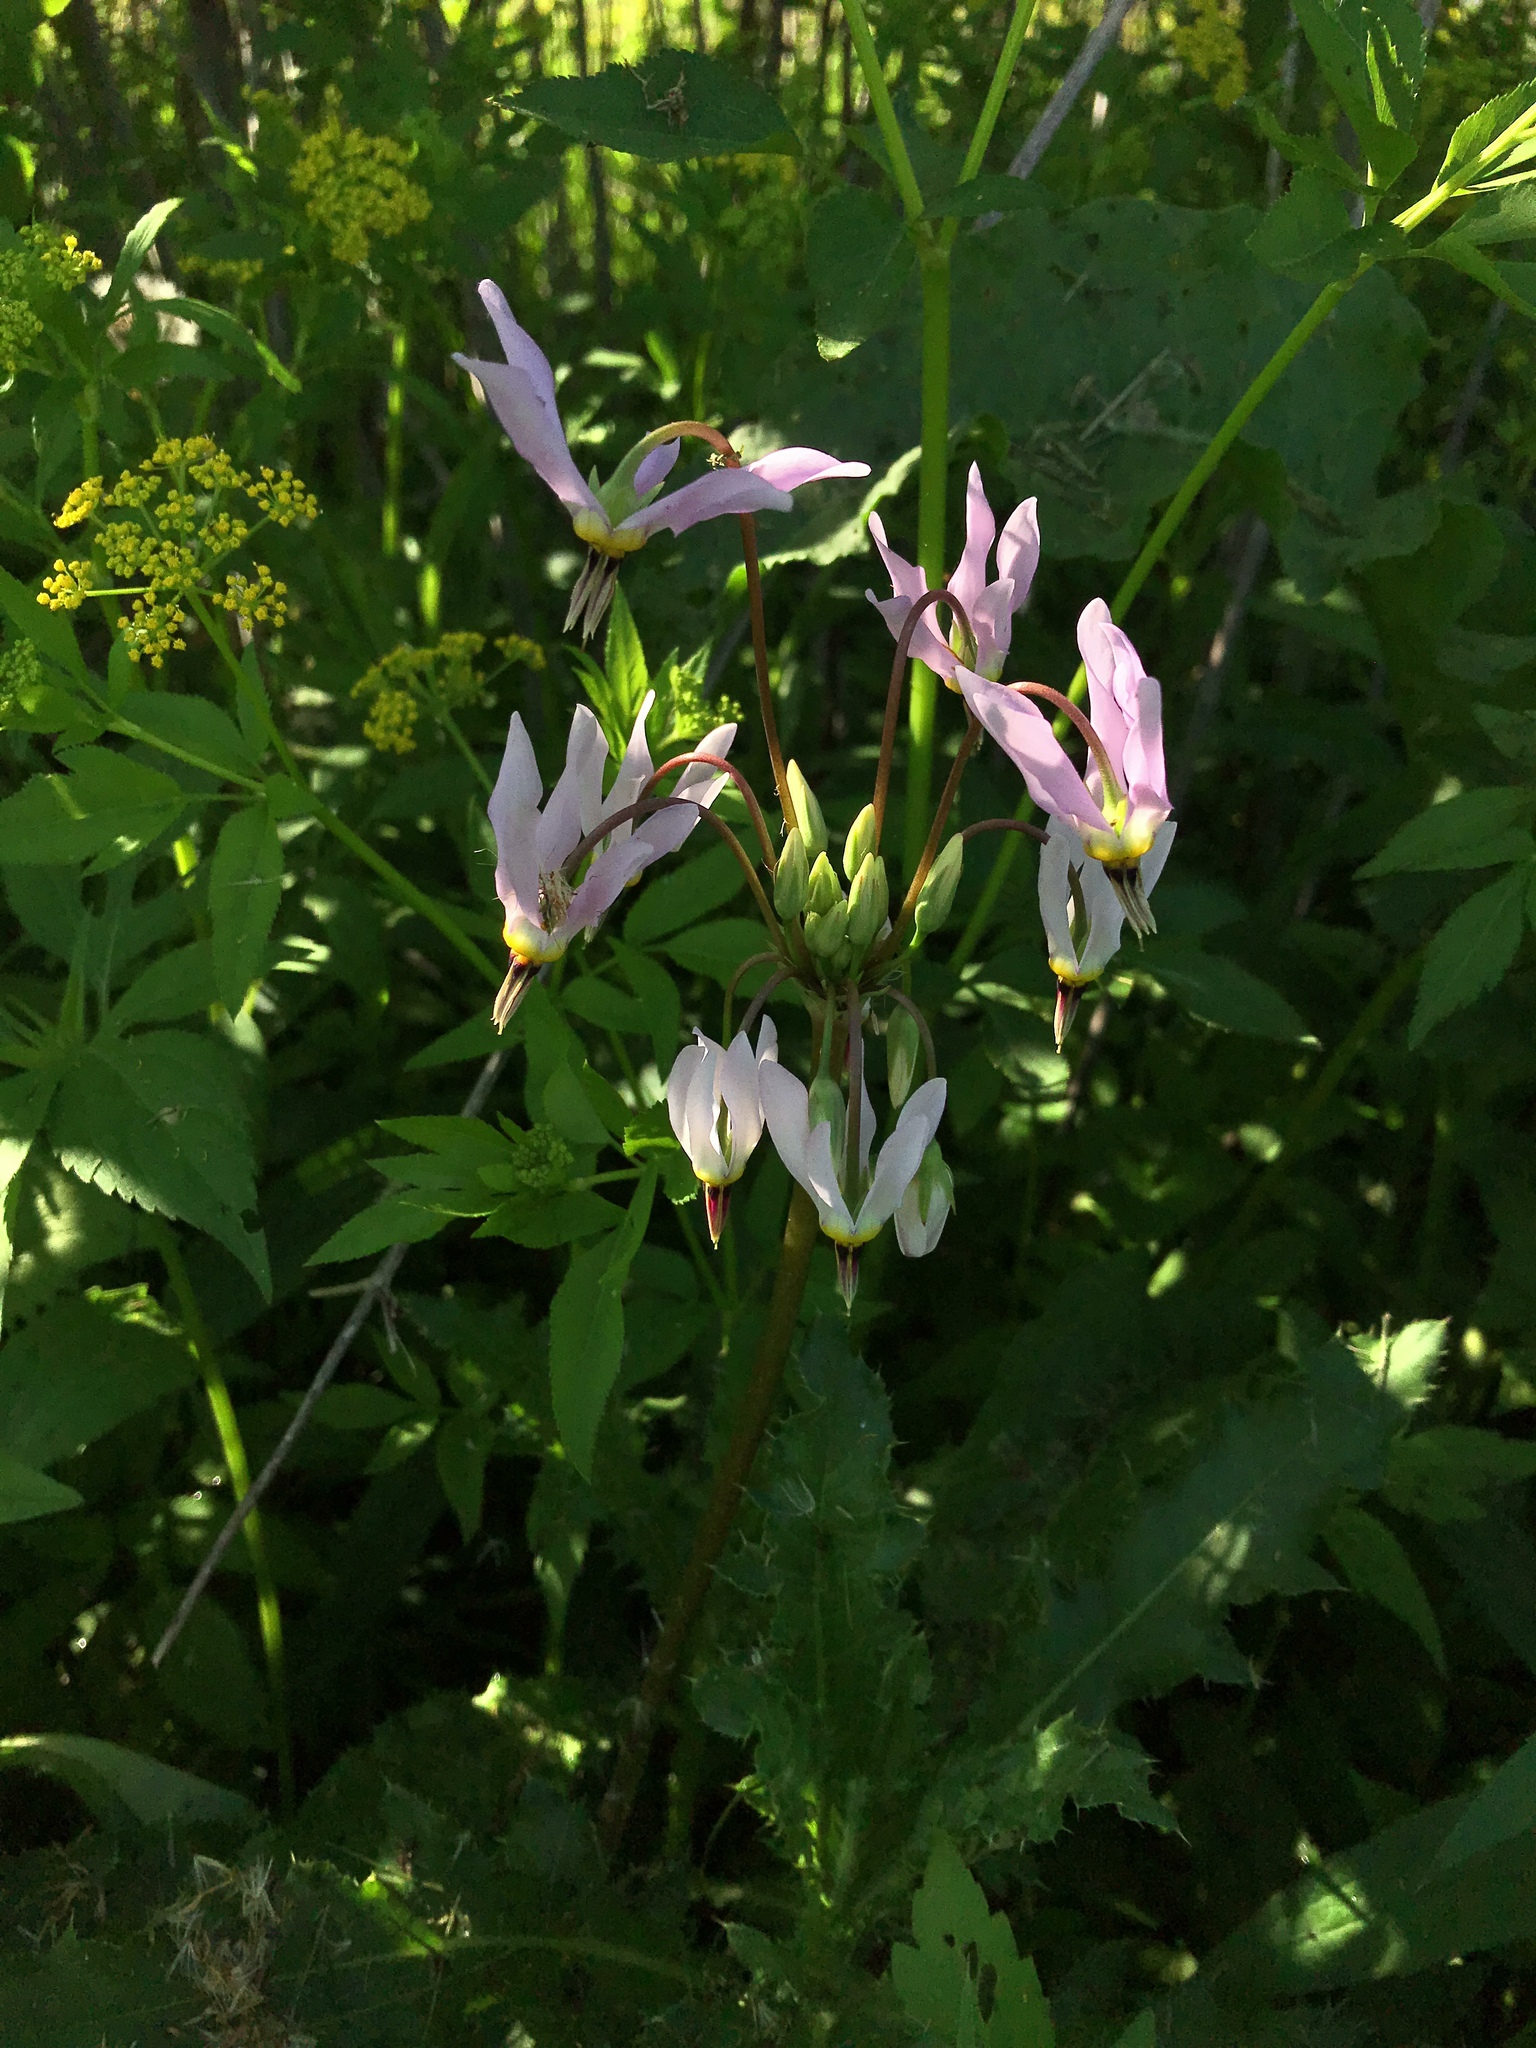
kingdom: Plantae
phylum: Tracheophyta
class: Magnoliopsida
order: Ericales
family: Primulaceae
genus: Dodecatheon
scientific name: Dodecatheon meadia
